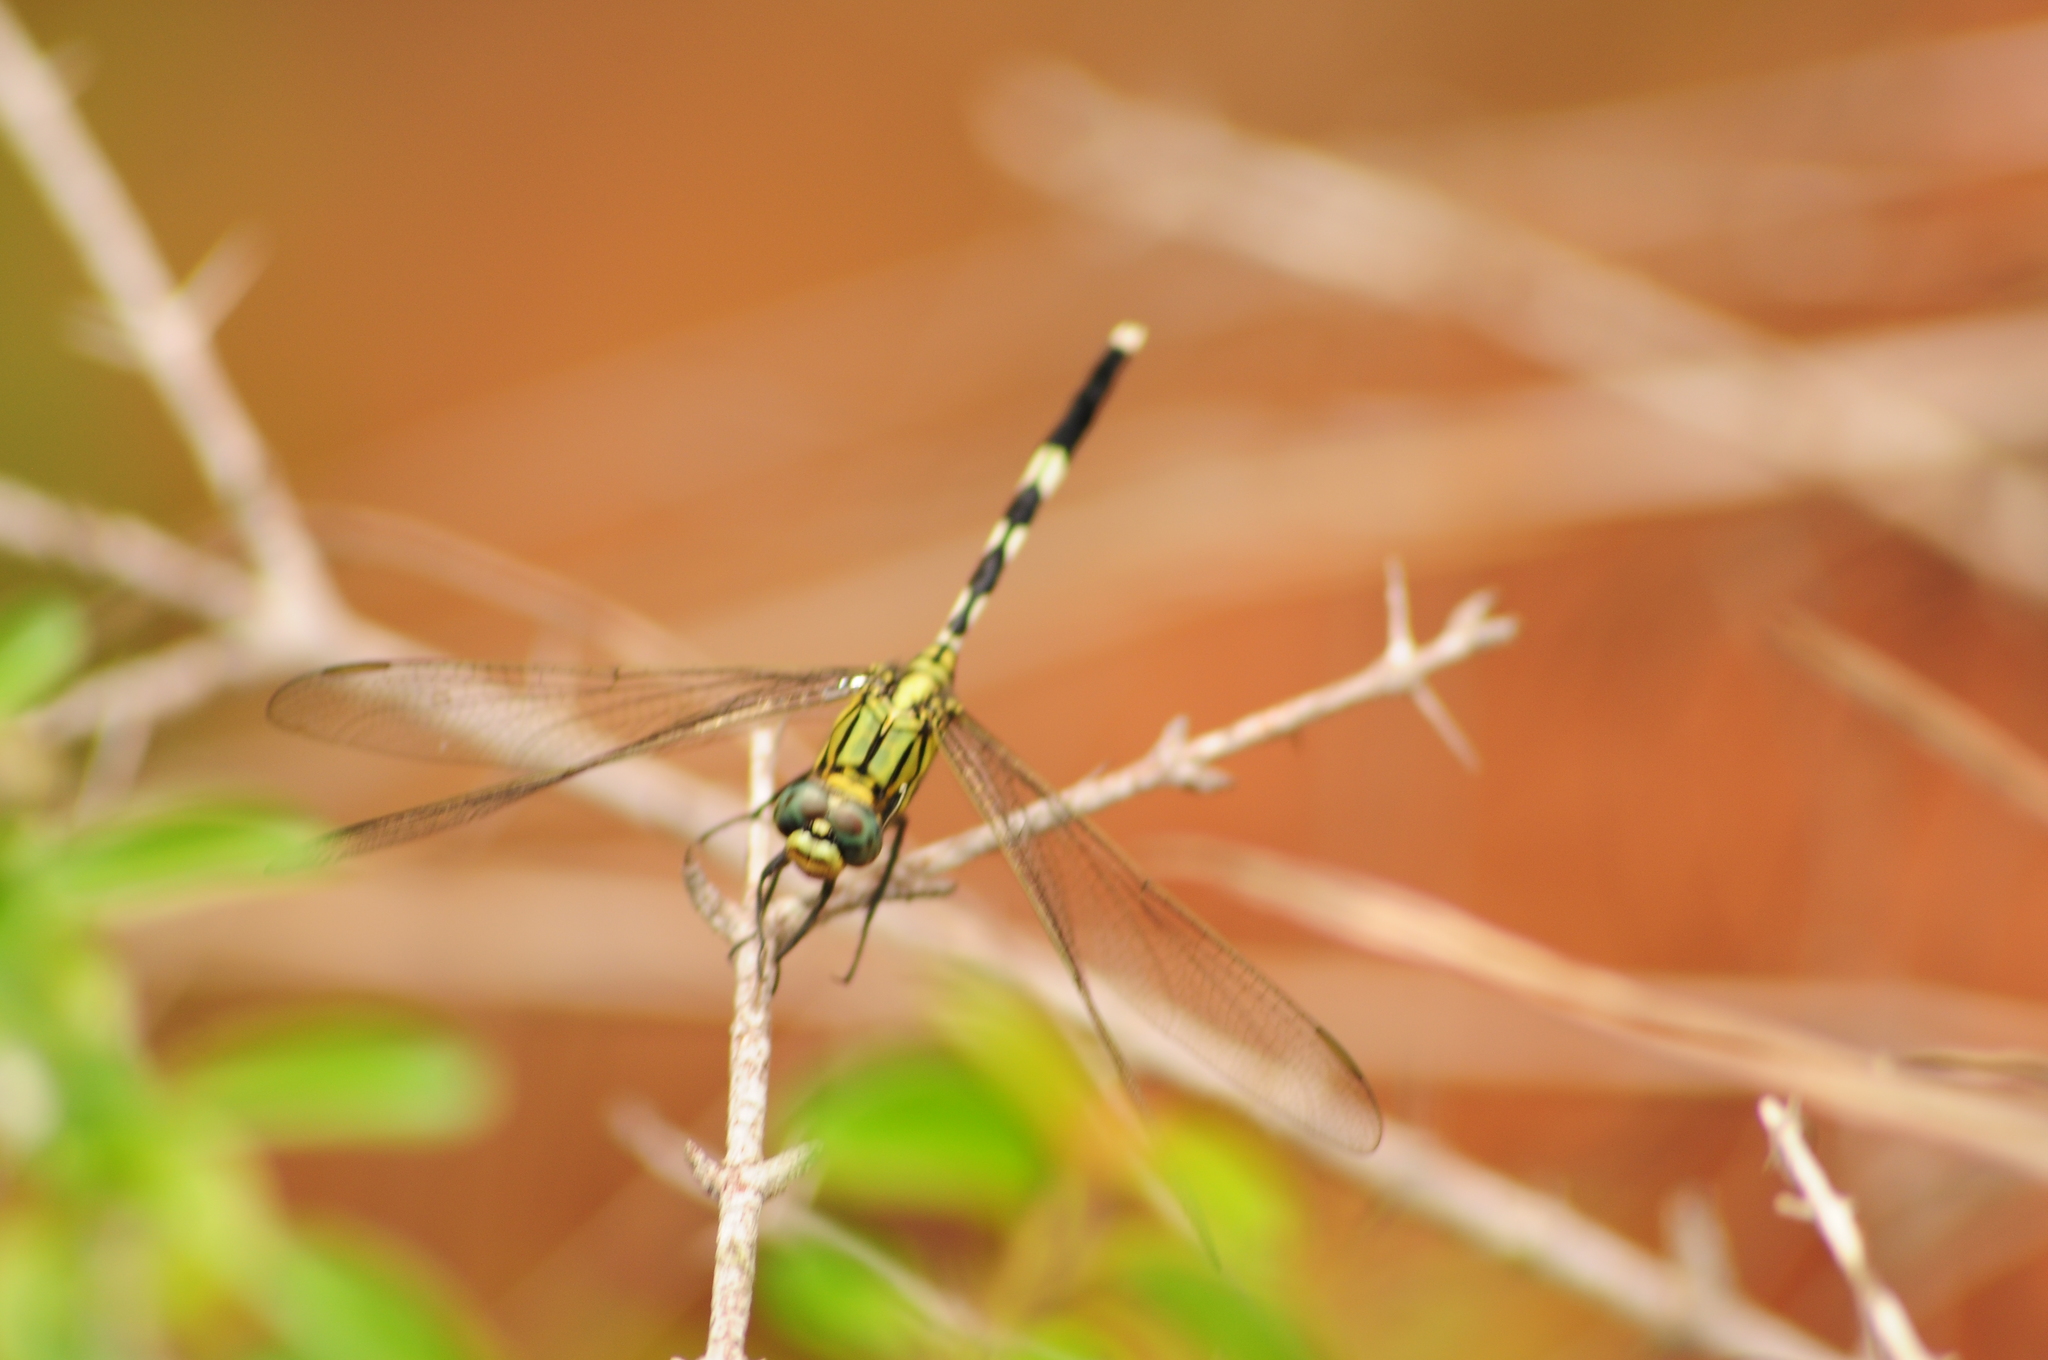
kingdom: Animalia
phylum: Arthropoda
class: Insecta
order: Odonata
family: Libellulidae
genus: Orthetrum
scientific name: Orthetrum sabina
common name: Slender skimmer
